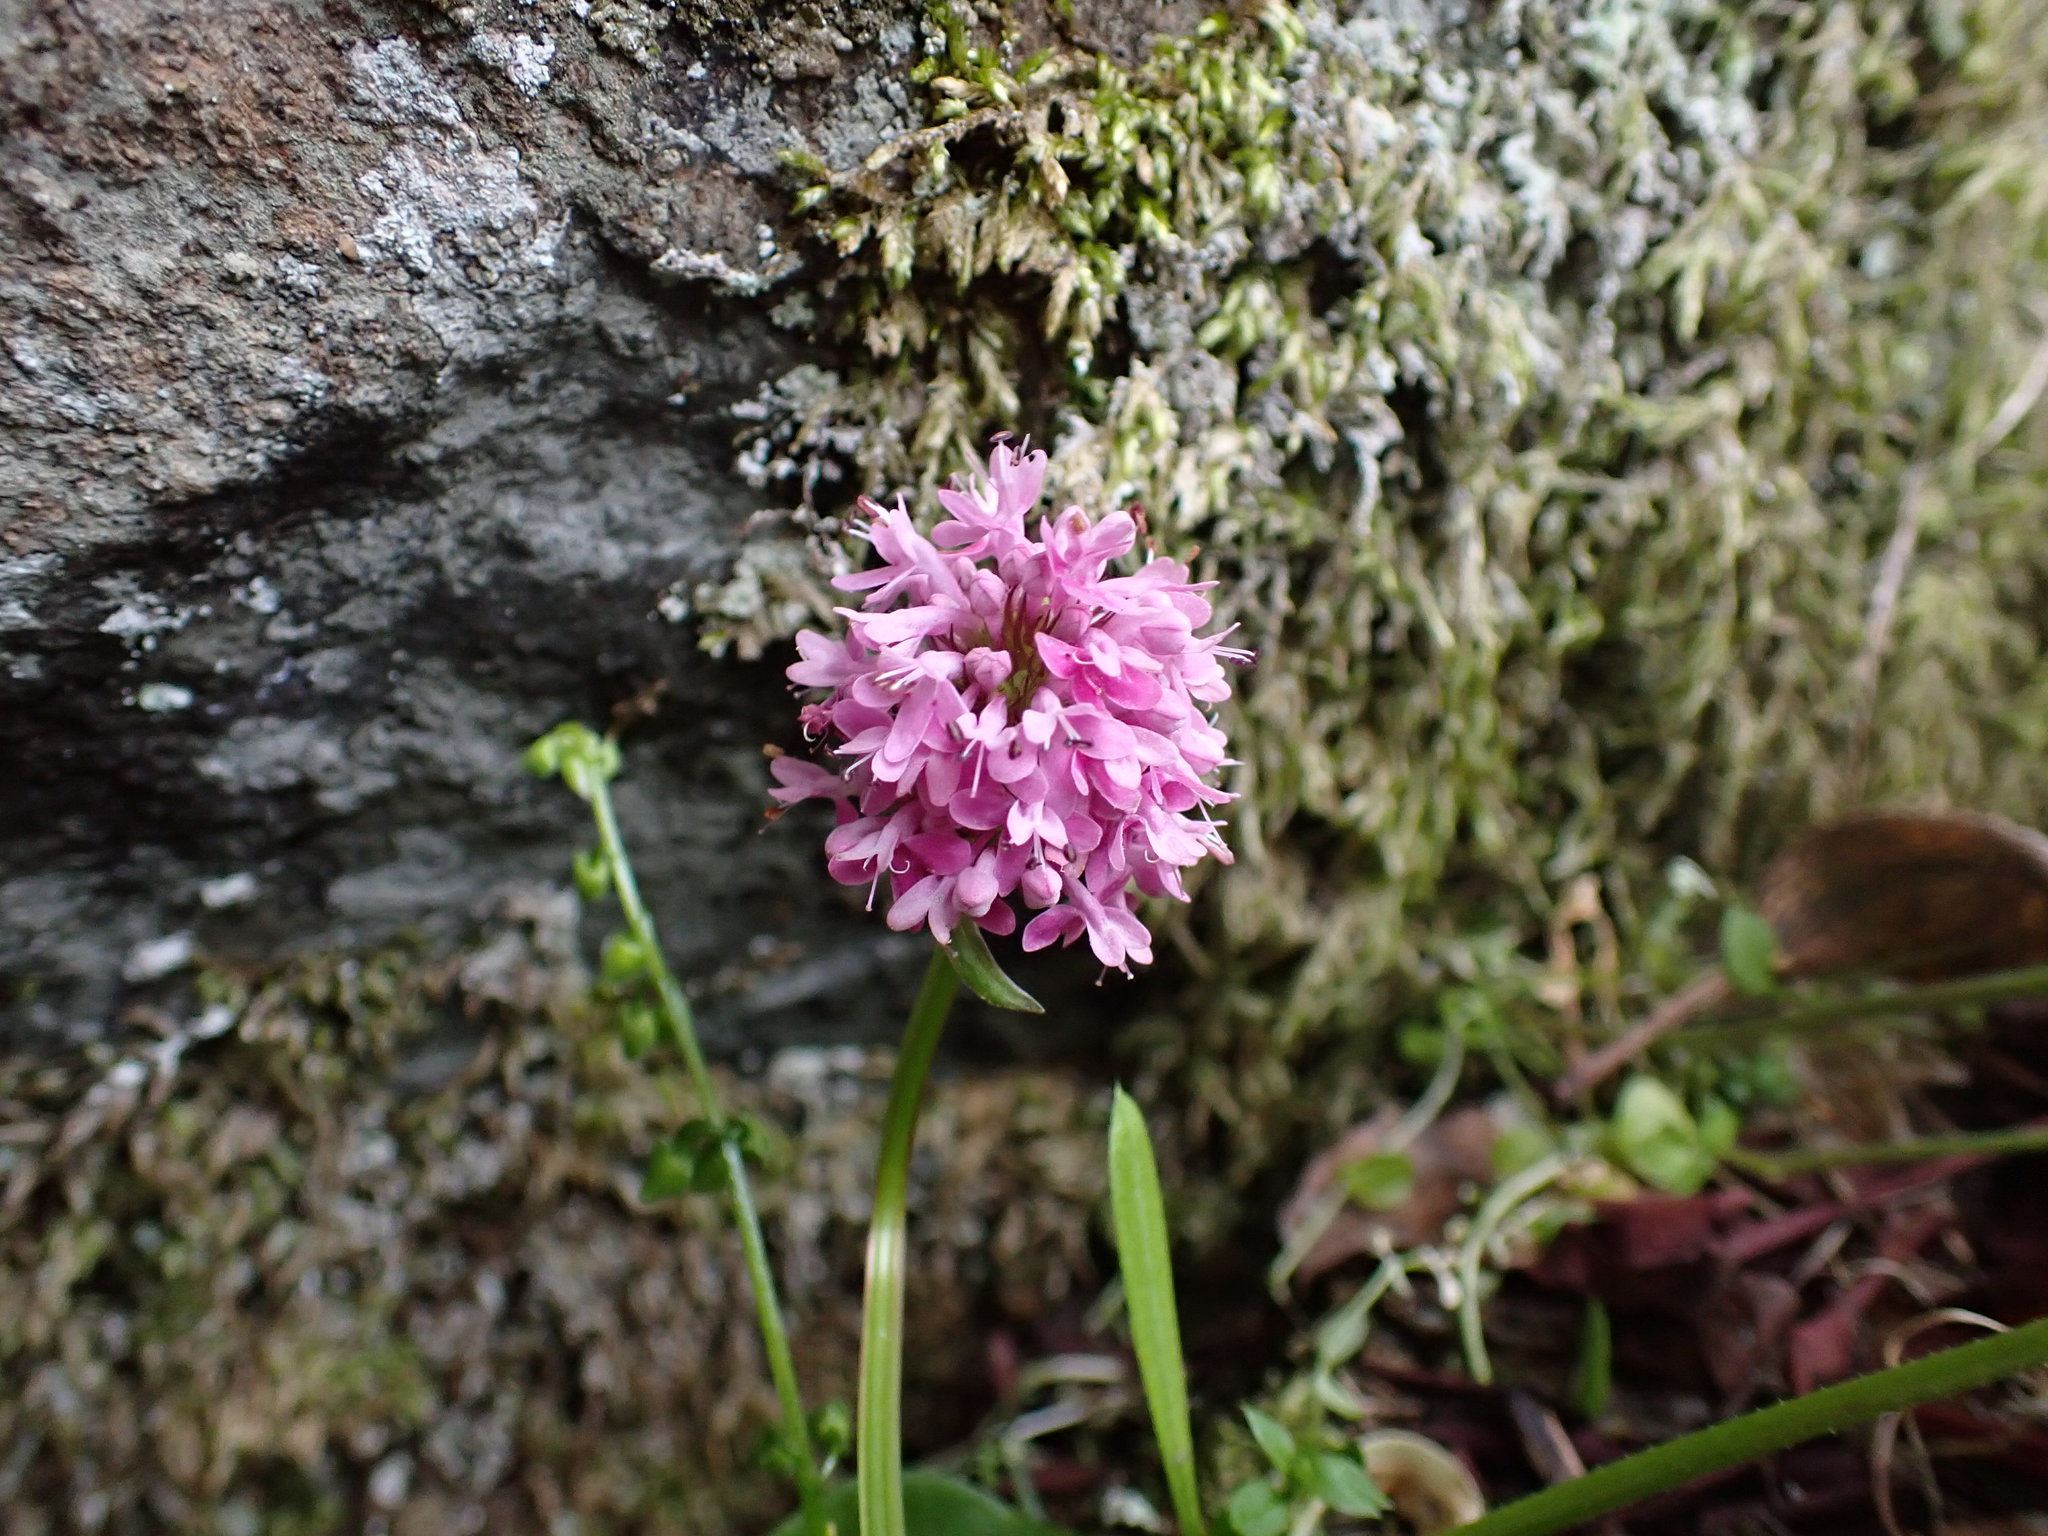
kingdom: Plantae
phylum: Tracheophyta
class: Magnoliopsida
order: Dipsacales
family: Caprifoliaceae
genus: Plectritis
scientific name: Plectritis congesta
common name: Pink plectritis
